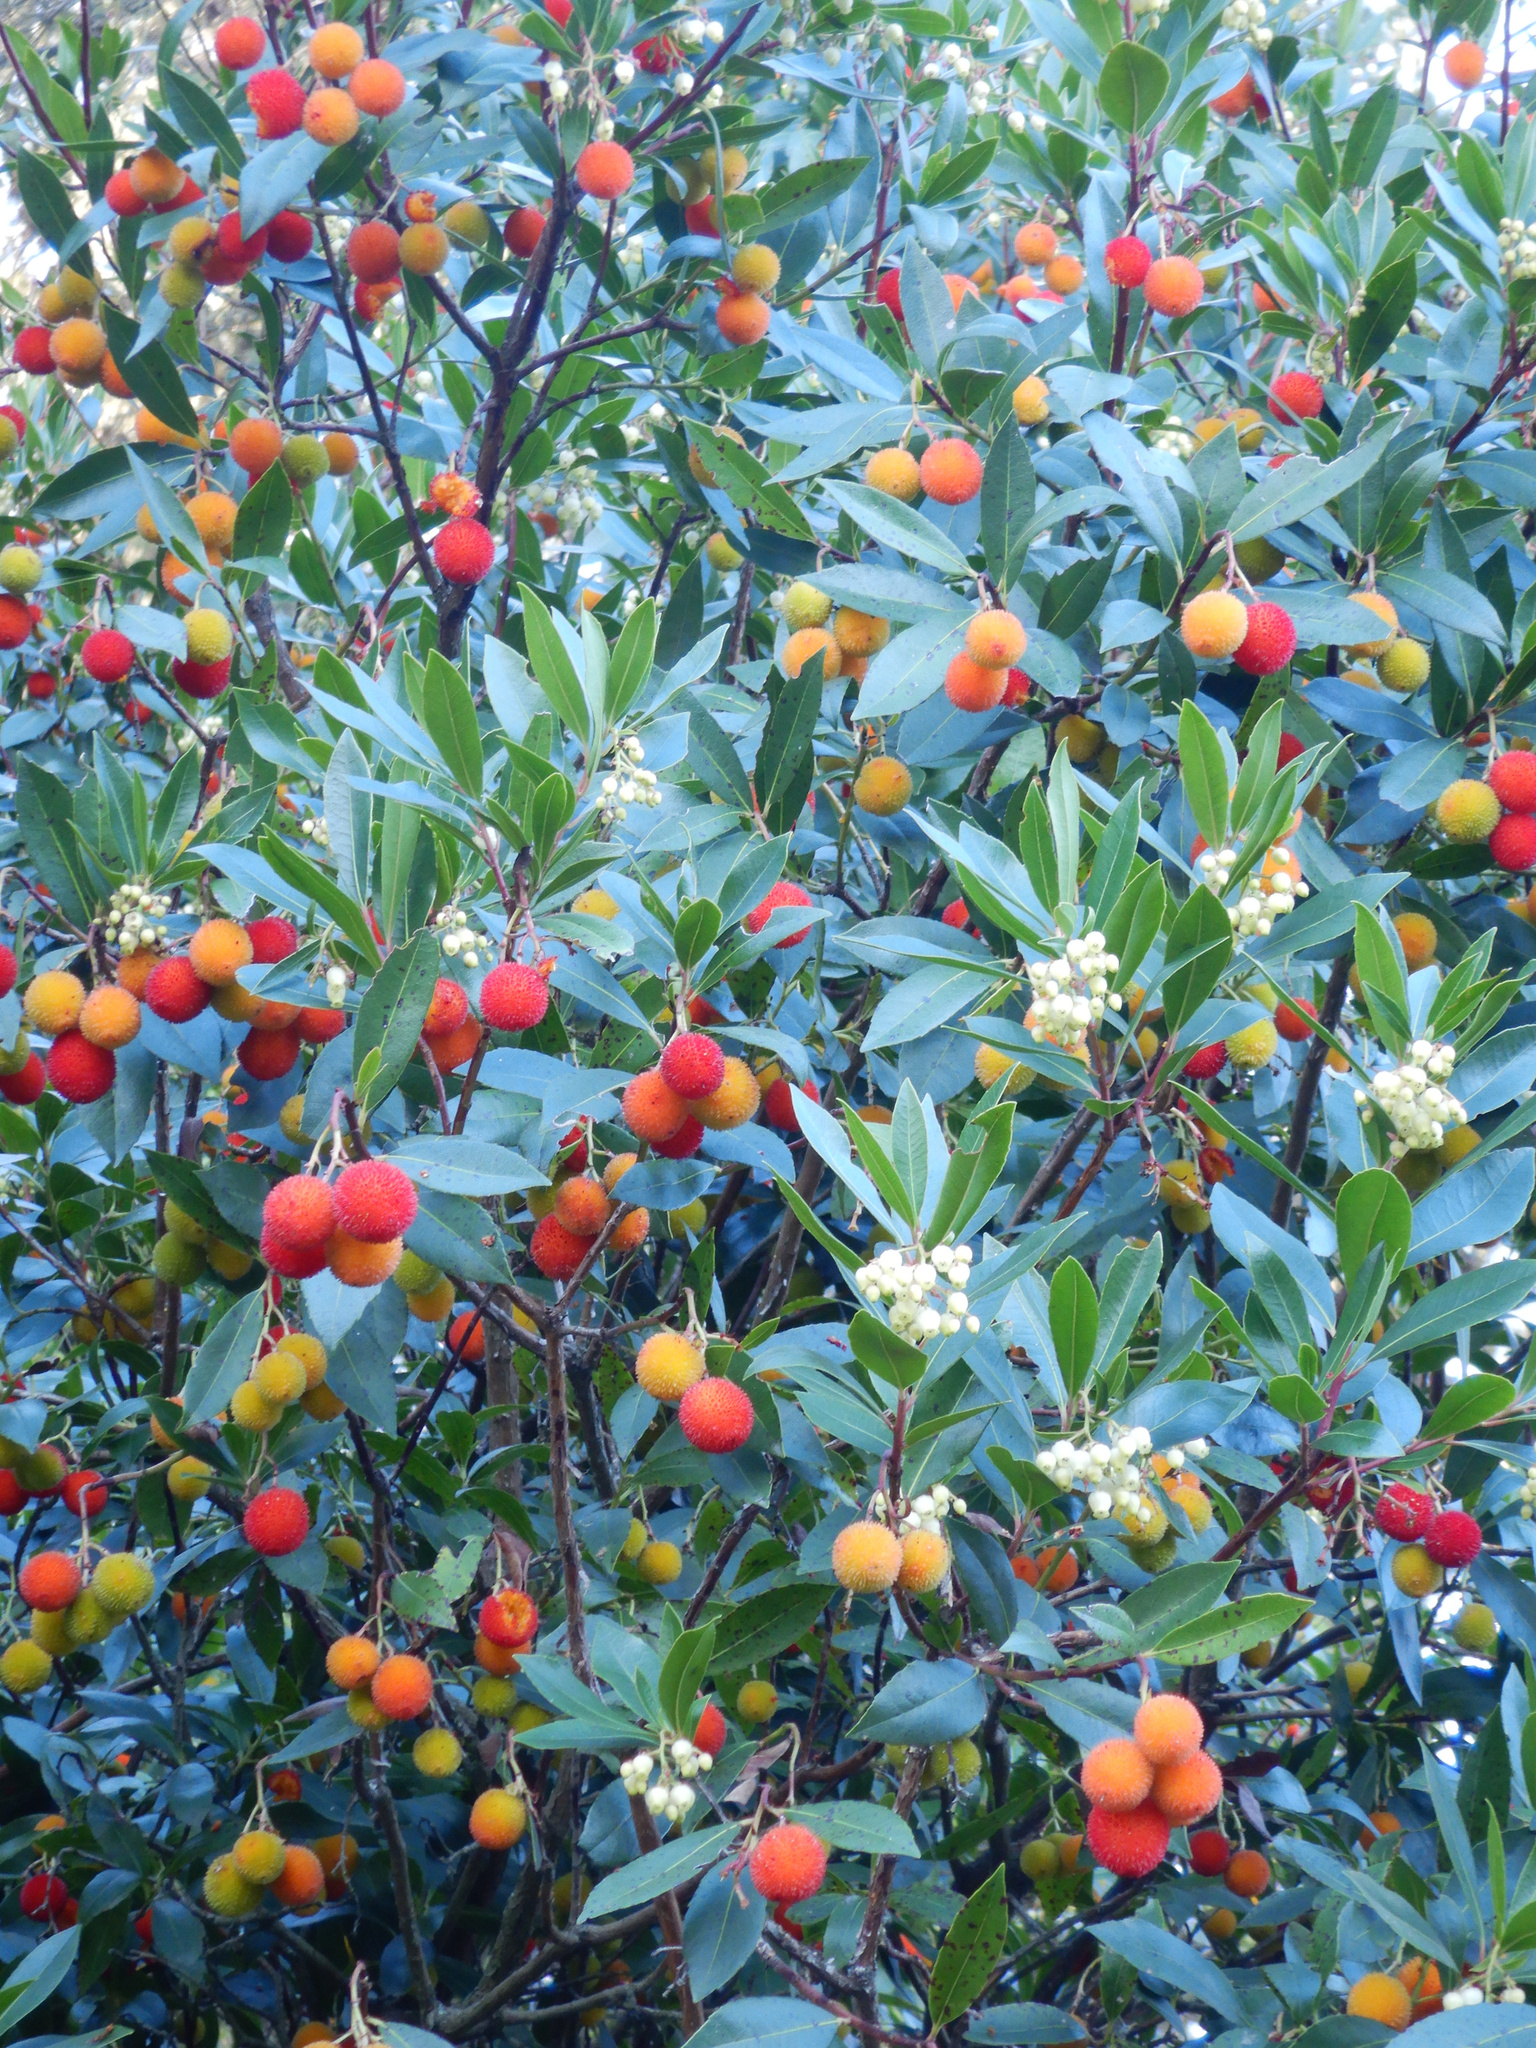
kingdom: Plantae
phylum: Tracheophyta
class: Magnoliopsida
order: Ericales
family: Ericaceae
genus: Arbutus
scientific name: Arbutus unedo
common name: Strawberry-tree
